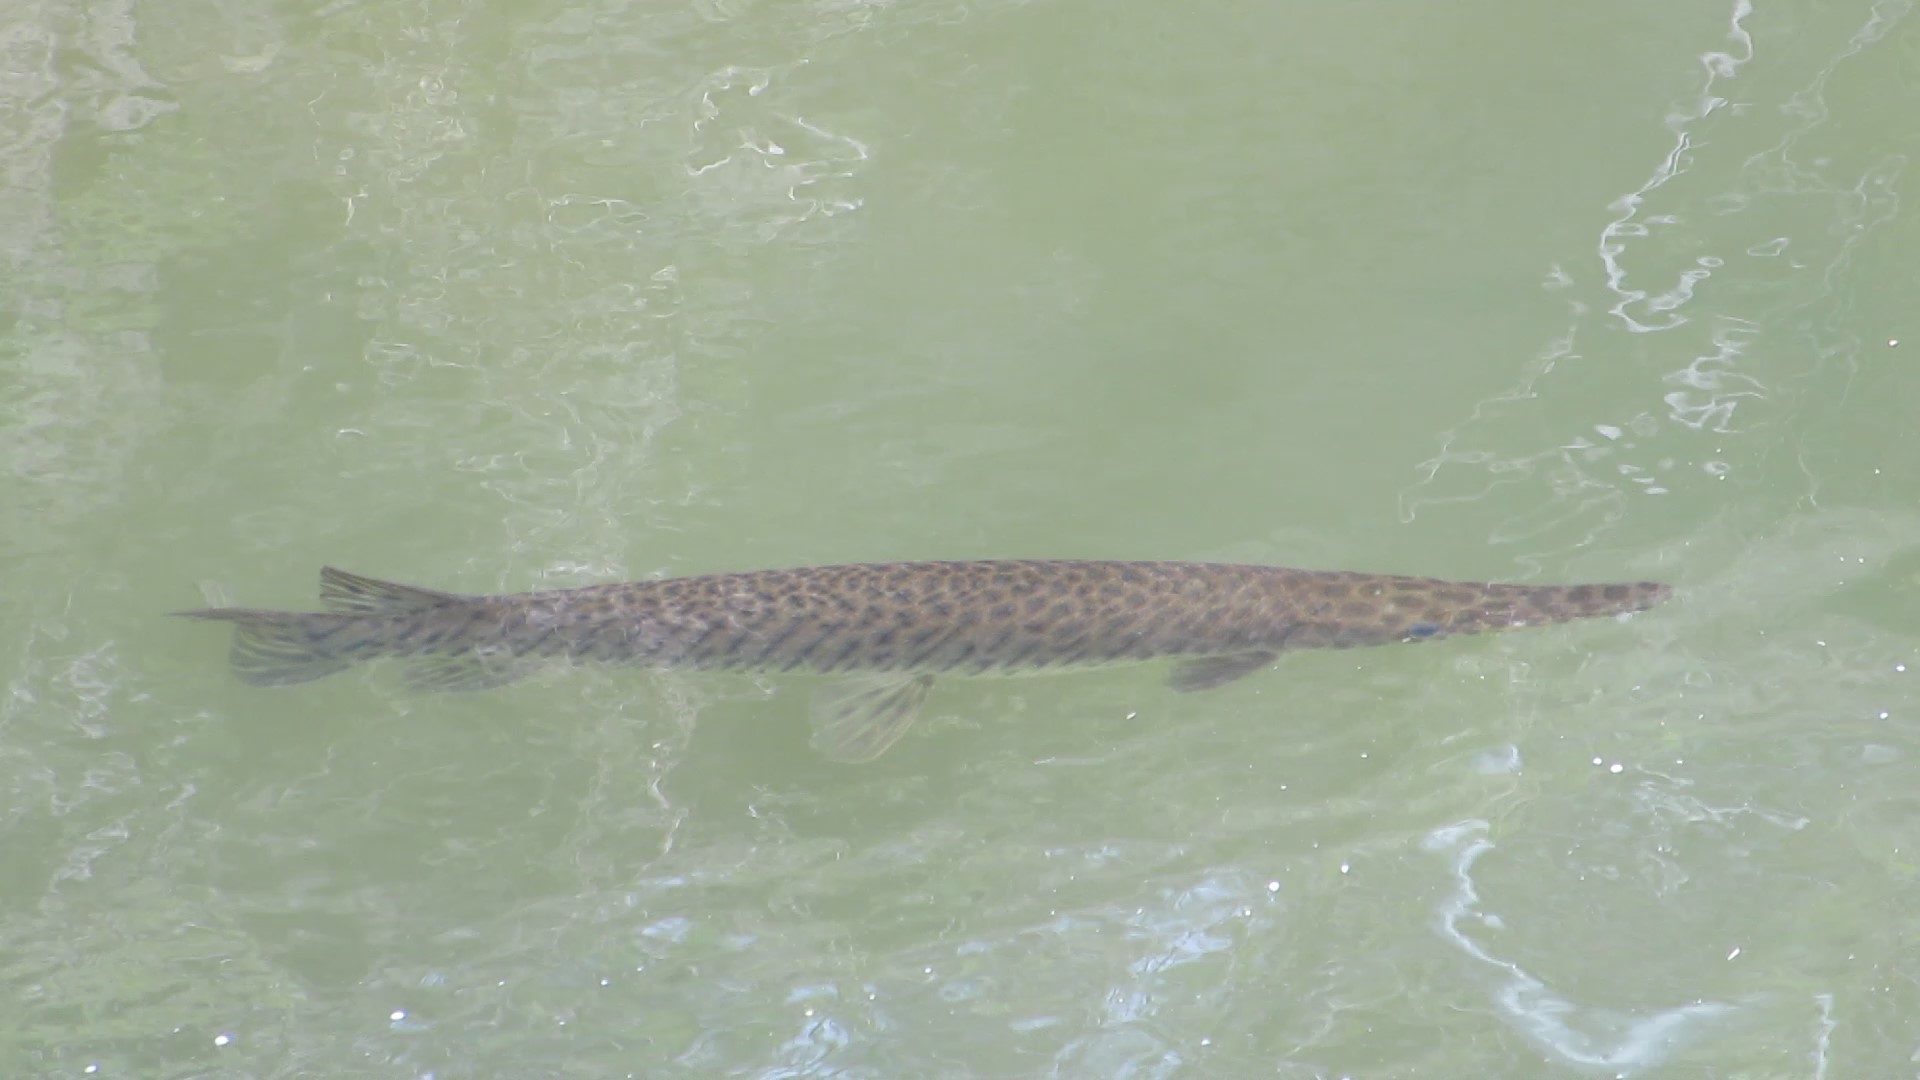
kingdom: Animalia
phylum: Chordata
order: Lepisosteiformes
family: Lepisosteidae
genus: Lepisosteus
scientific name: Lepisosteus platyrhincus
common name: Florida gar
